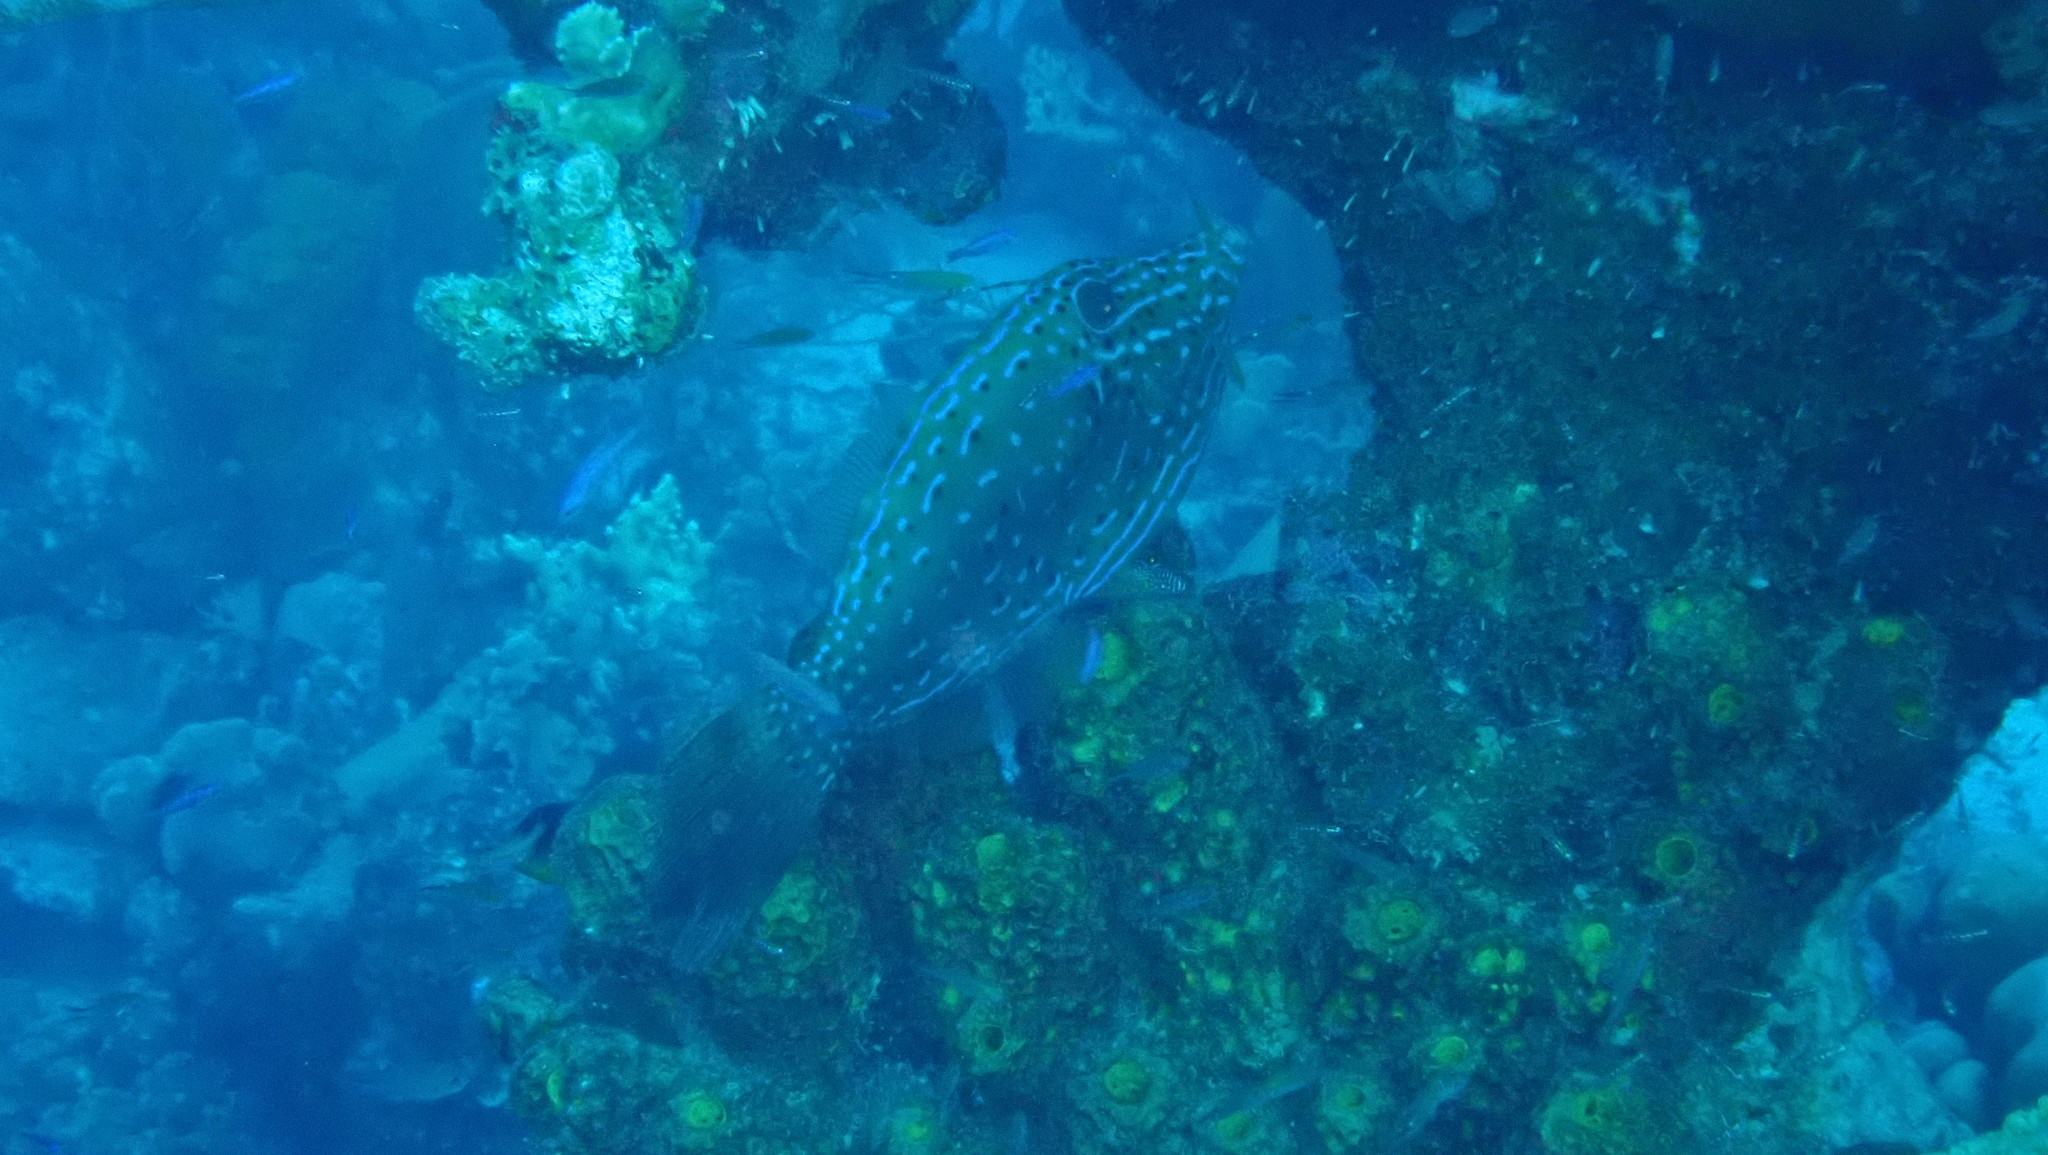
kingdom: Animalia
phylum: Chordata
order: Tetraodontiformes
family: Monacanthidae
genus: Aluterus
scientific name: Aluterus scriptus
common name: Scribbled leatherjacket filefish
